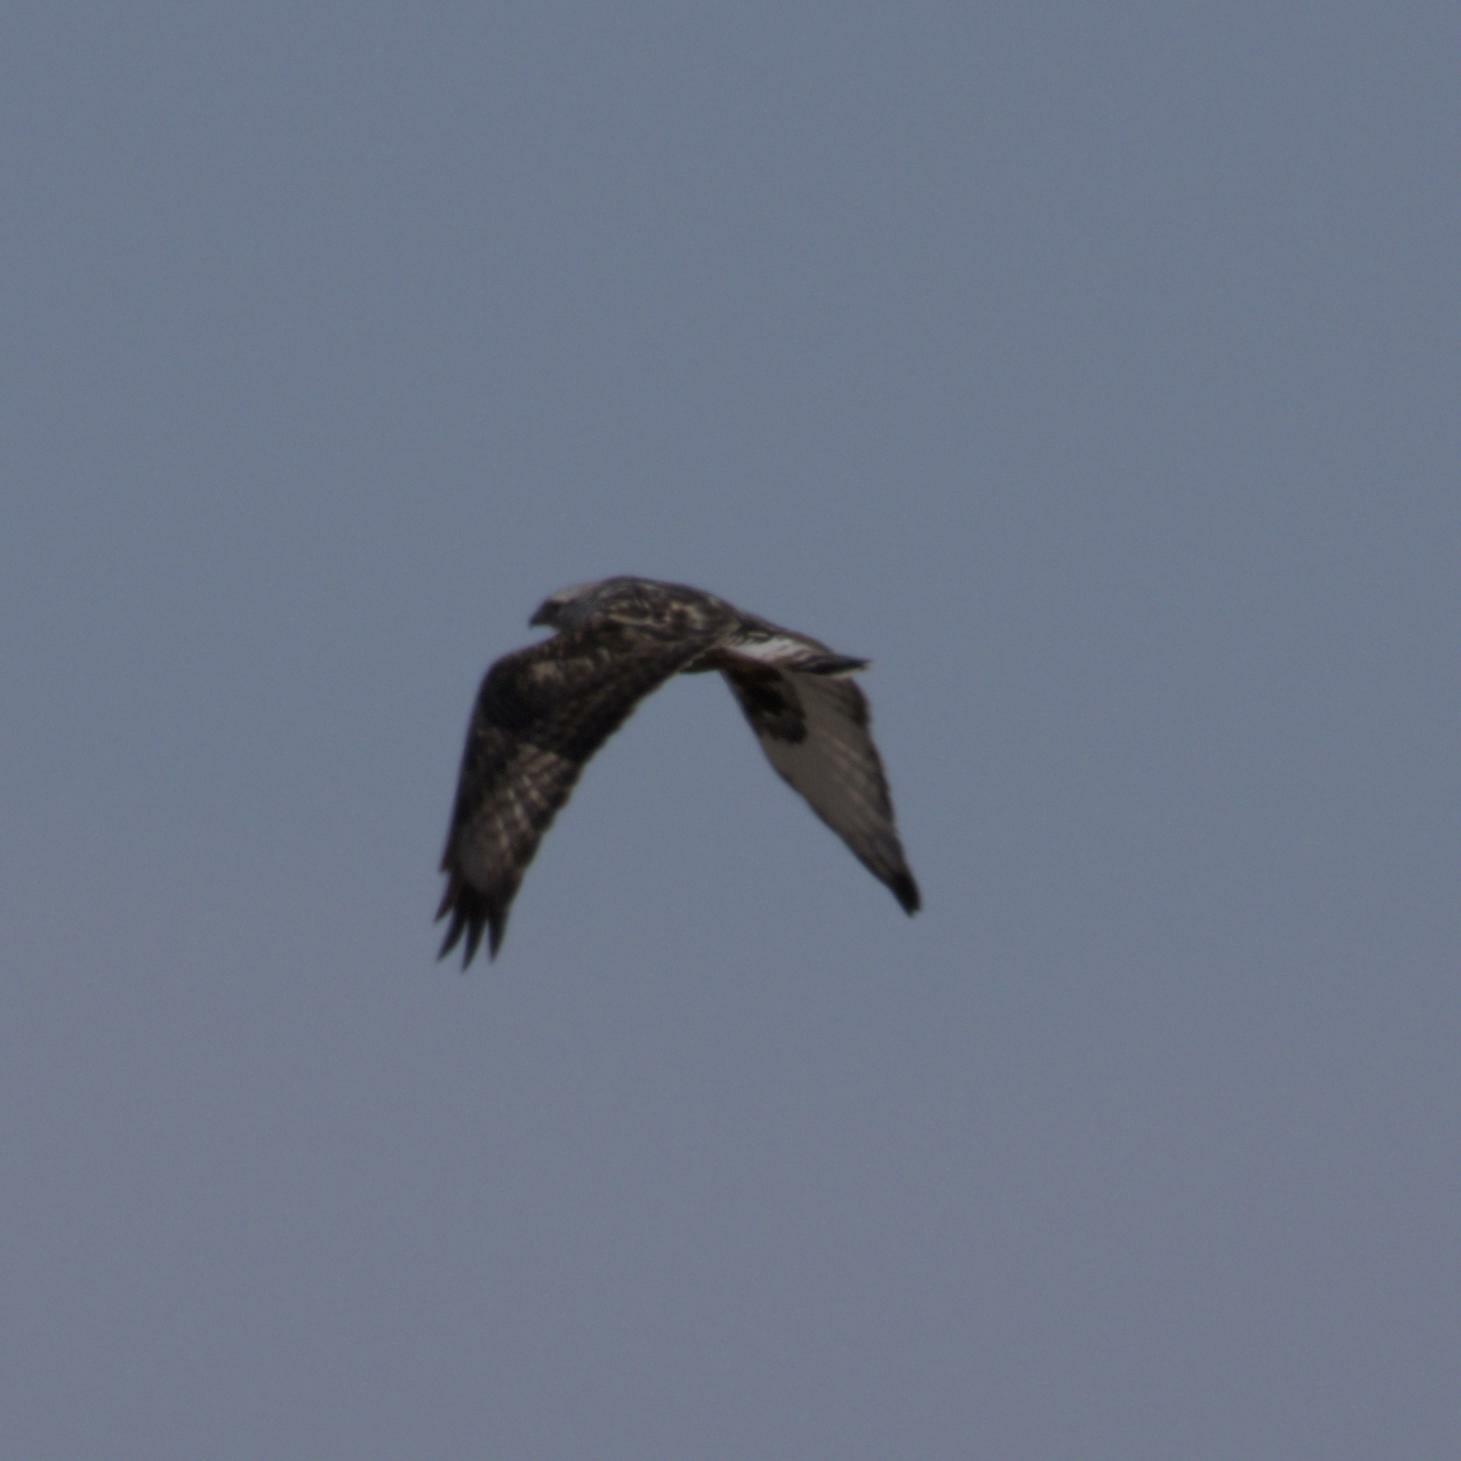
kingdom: Animalia
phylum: Chordata
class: Aves
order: Accipitriformes
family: Accipitridae
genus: Buteo
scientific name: Buteo lagopus
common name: Rough-legged buzzard
